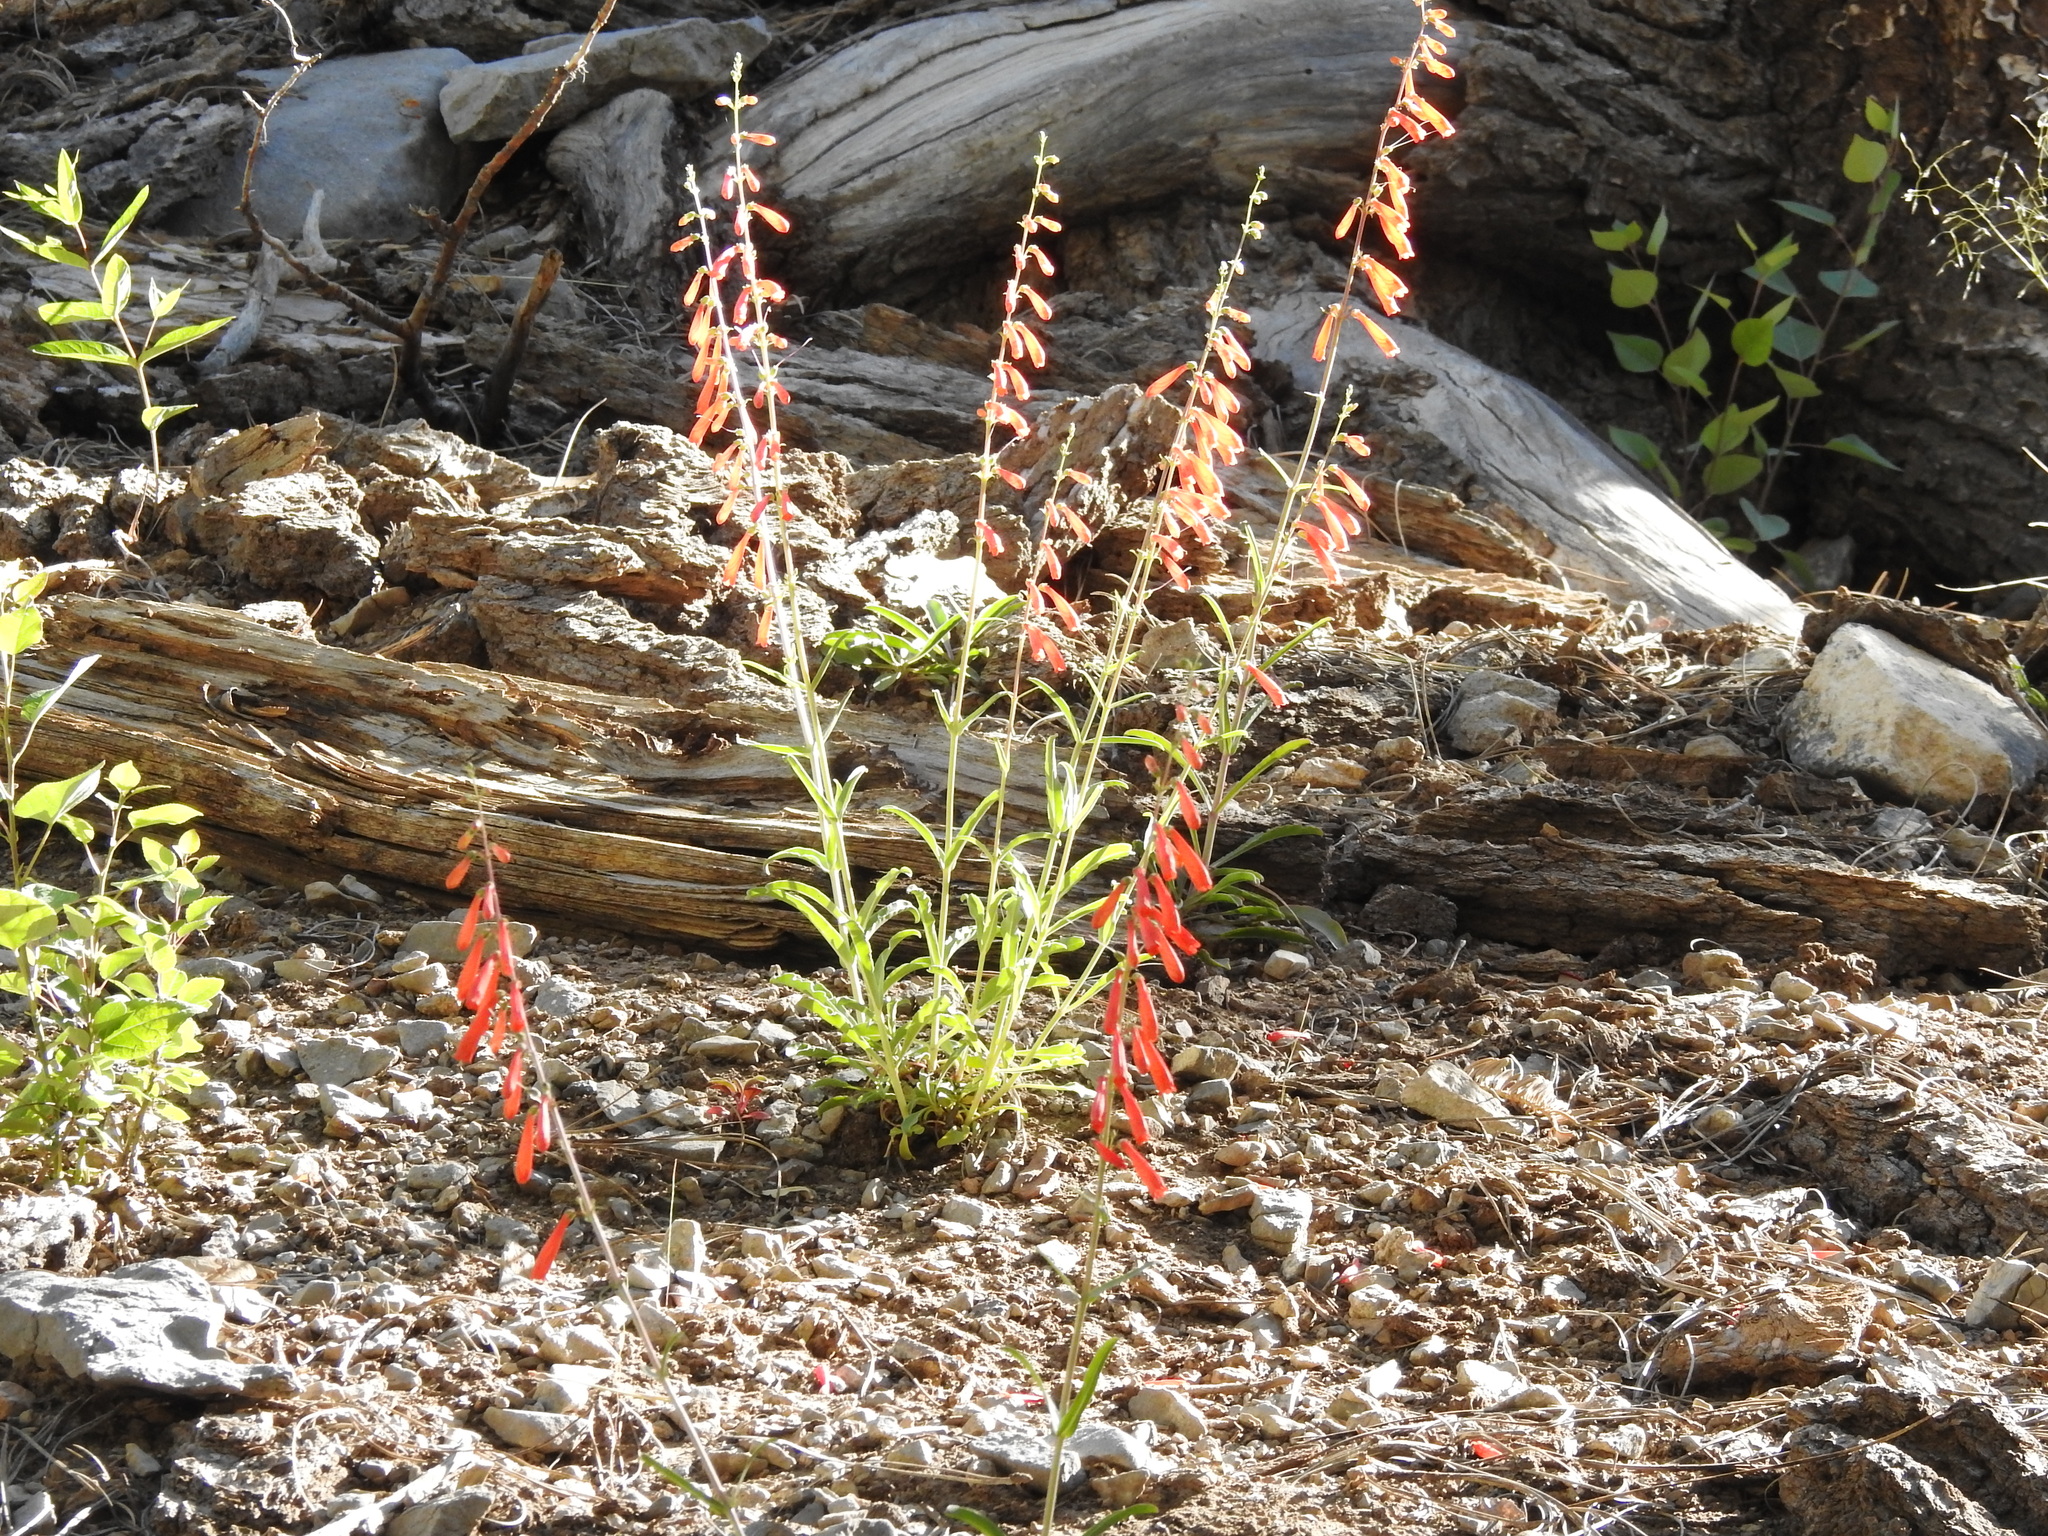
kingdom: Plantae
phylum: Tracheophyta
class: Magnoliopsida
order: Lamiales
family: Plantaginaceae
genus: Penstemon
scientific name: Penstemon eatonii
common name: Eaton's penstemon
